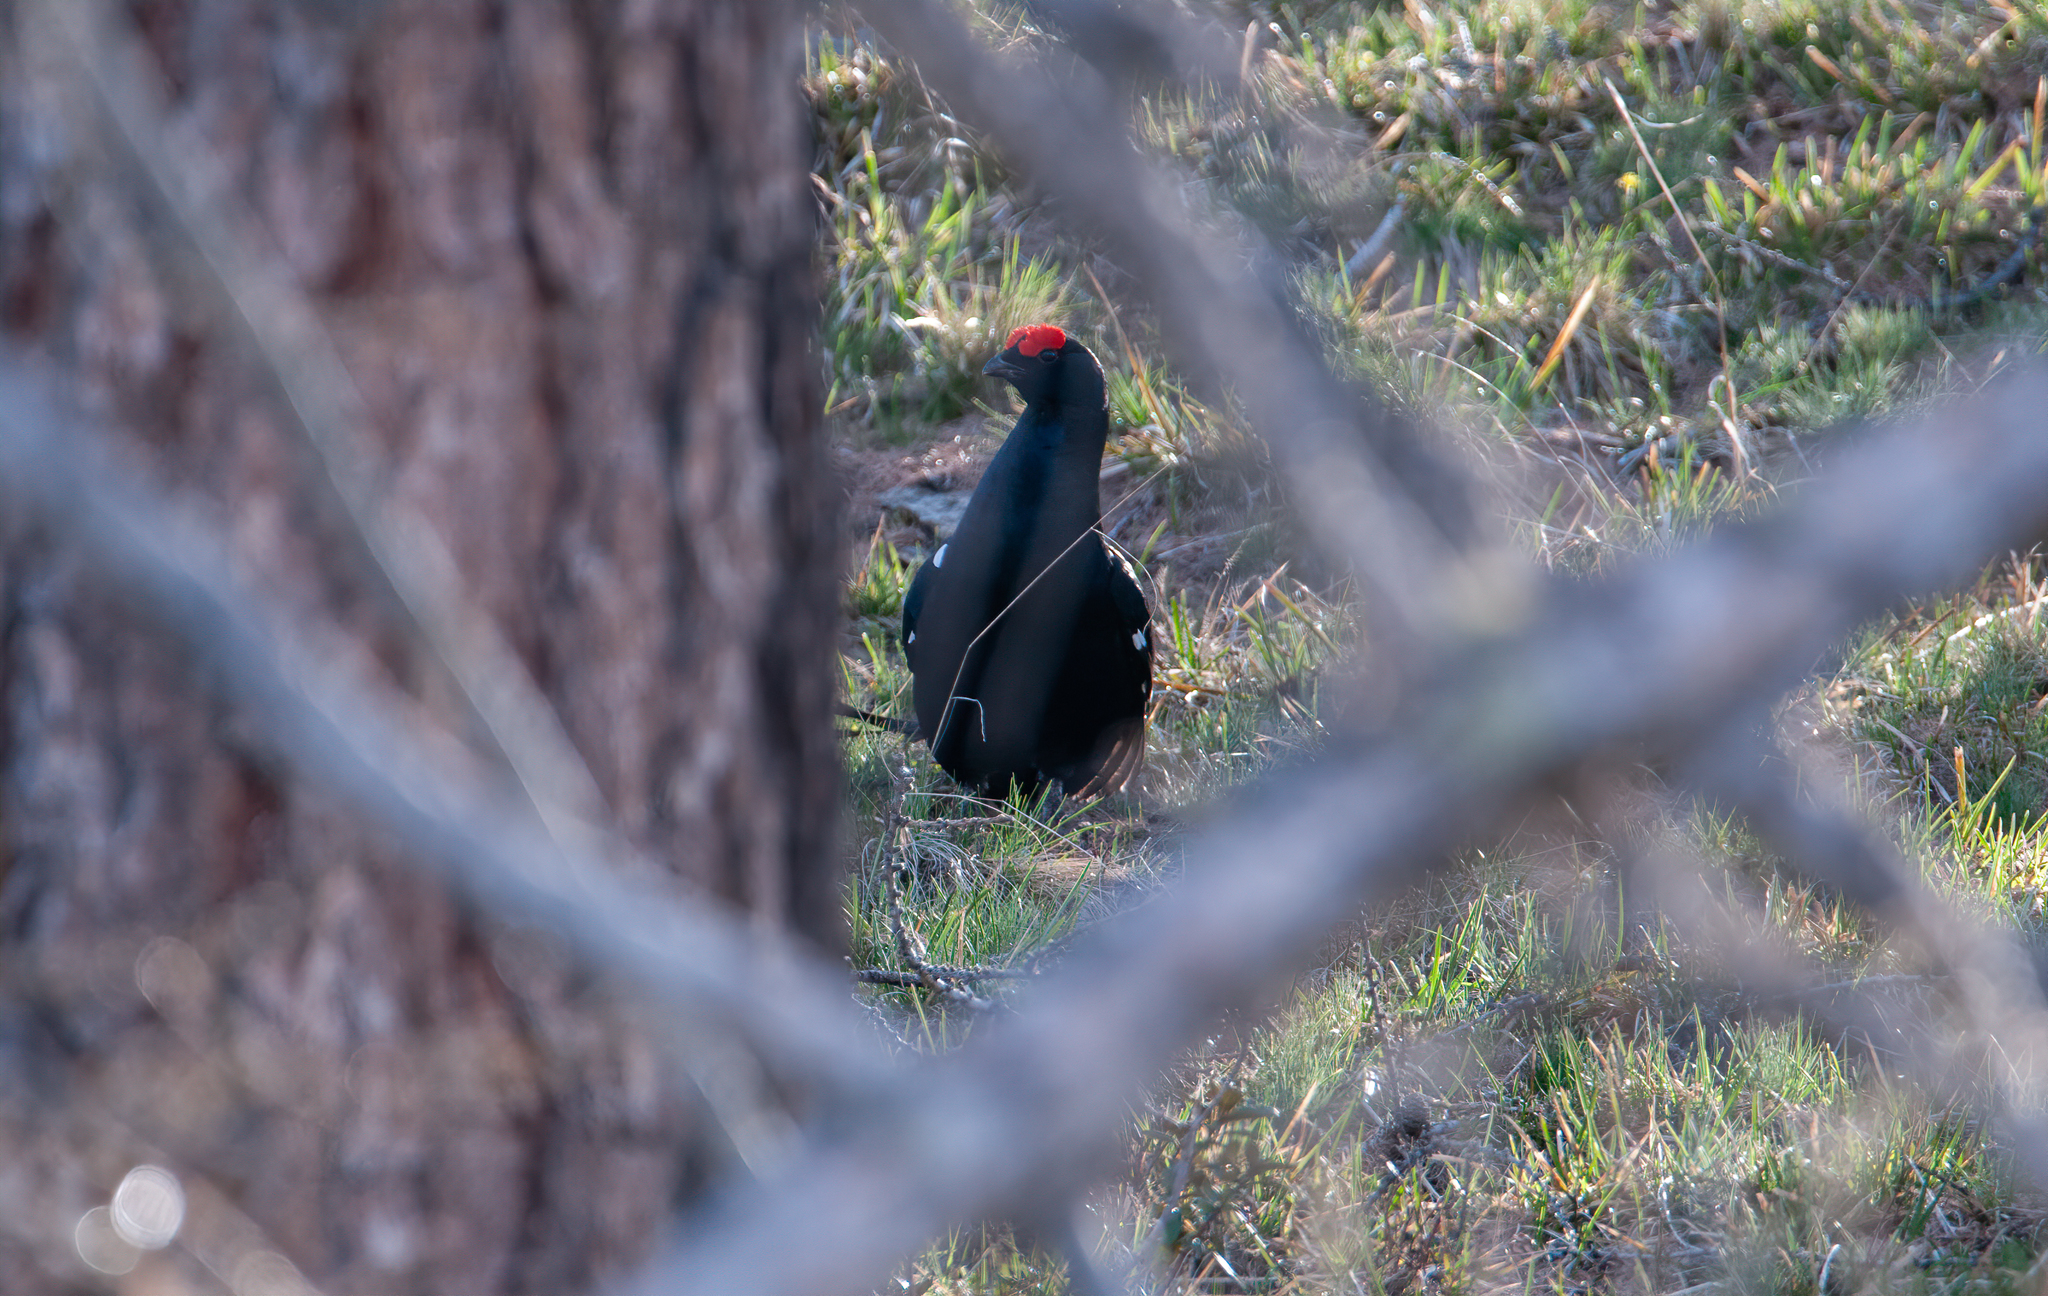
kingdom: Animalia
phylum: Chordata
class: Aves
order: Galliformes
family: Phasianidae
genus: Lyrurus
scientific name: Lyrurus tetrix
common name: Black grouse
